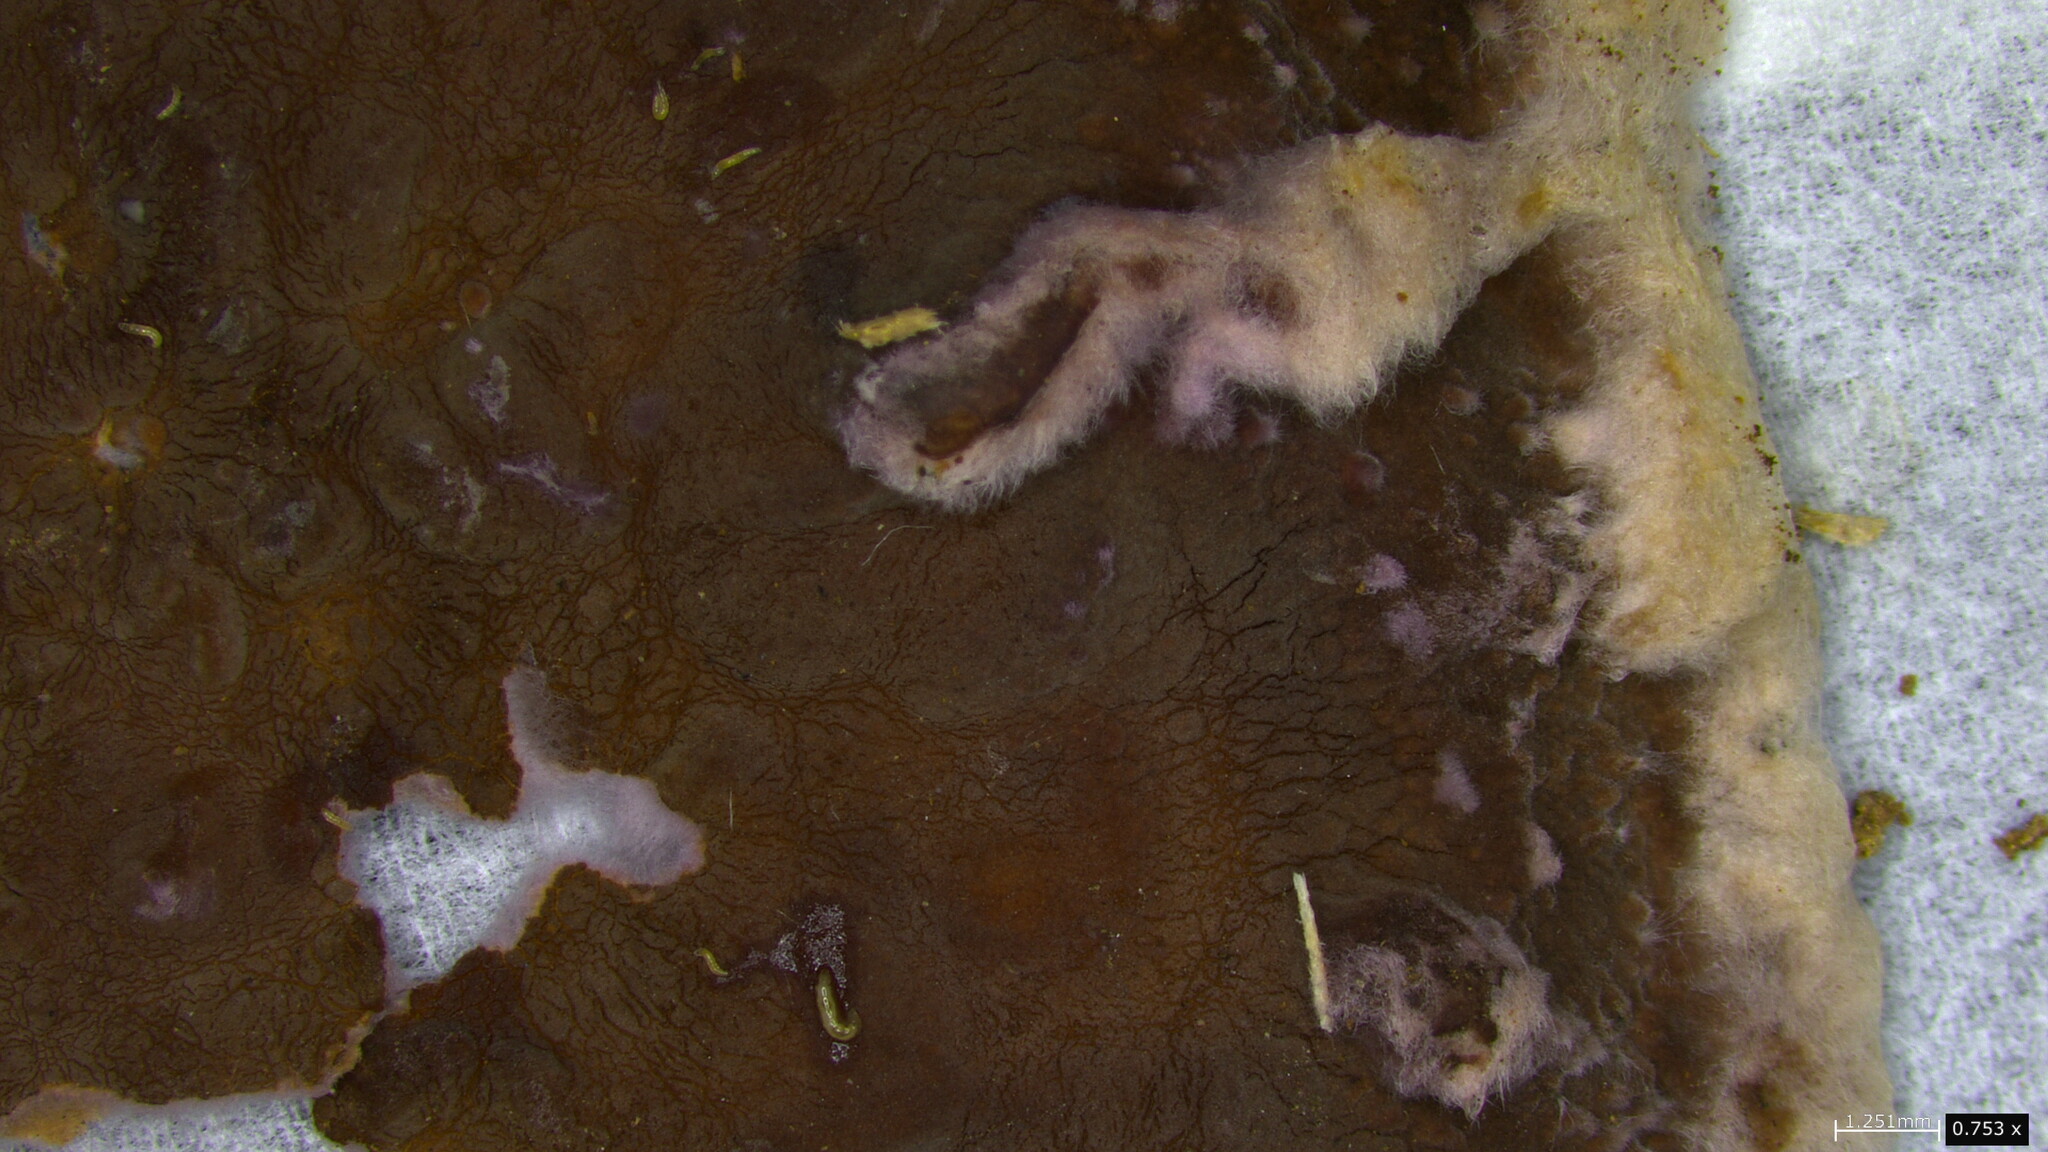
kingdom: Fungi
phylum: Basidiomycota
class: Agaricomycetes
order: Polyporales
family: Phanerochaetaceae
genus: Phlebiopsis
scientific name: Phlebiopsis crassa
